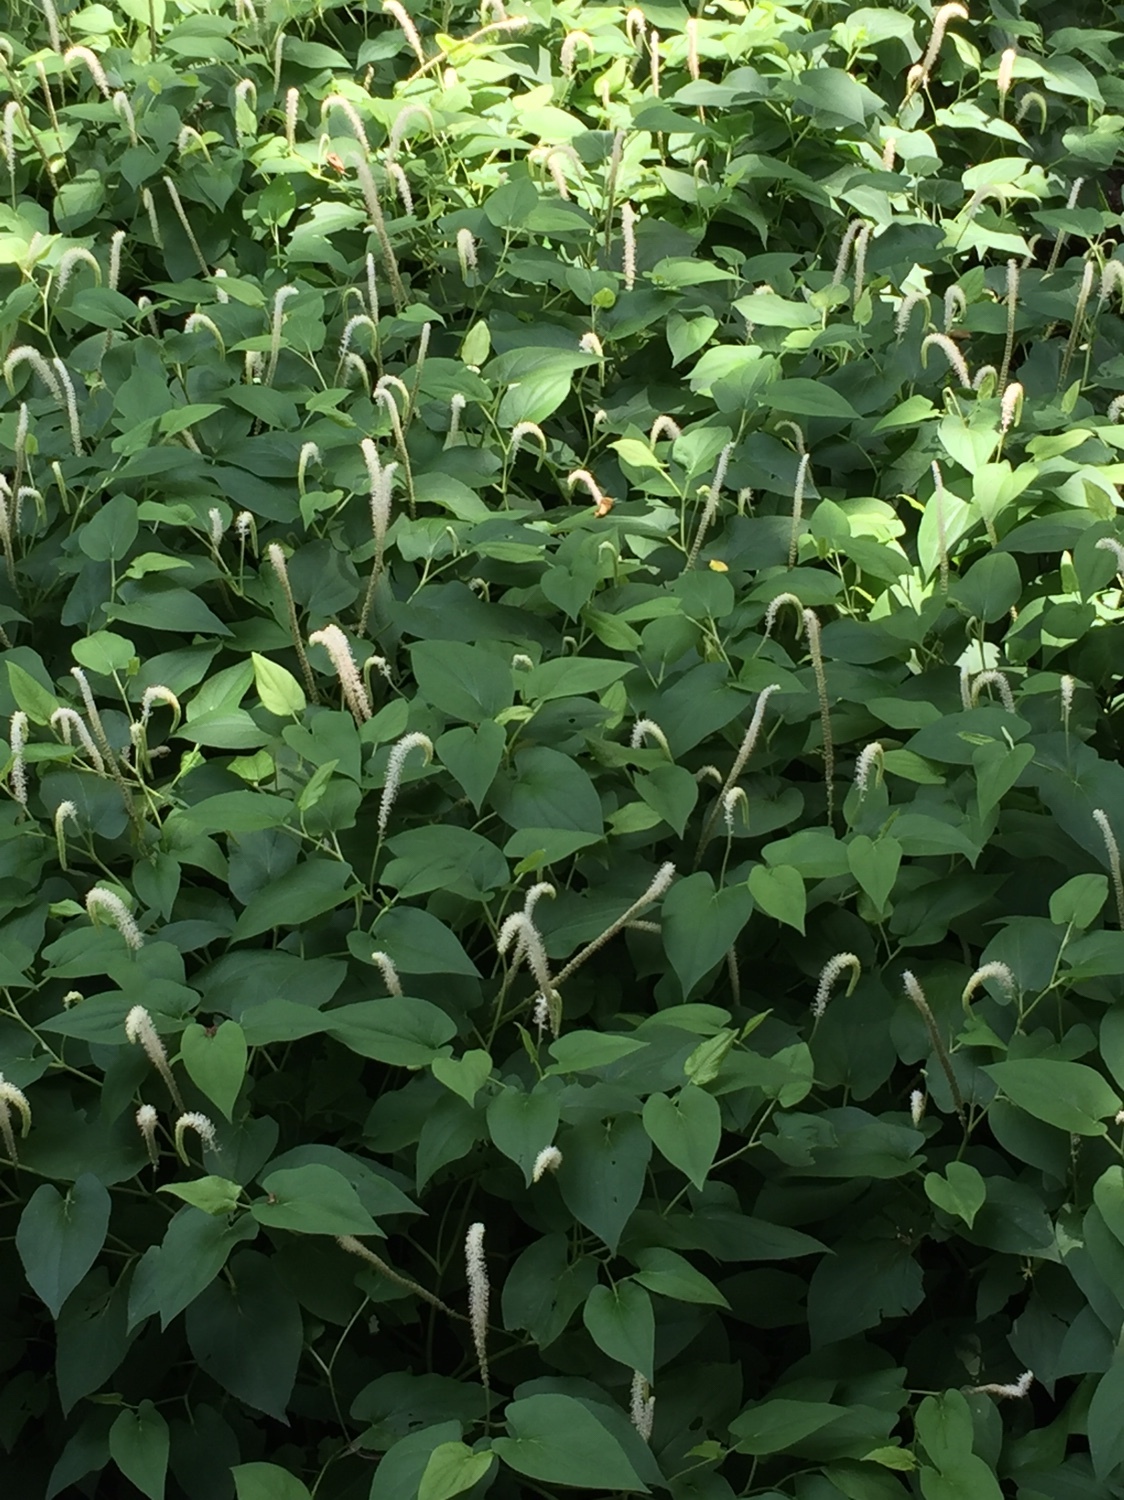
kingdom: Plantae
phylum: Tracheophyta
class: Magnoliopsida
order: Piperales
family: Saururaceae
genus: Saururus
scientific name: Saururus cernuus
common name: Lizard's-tail
